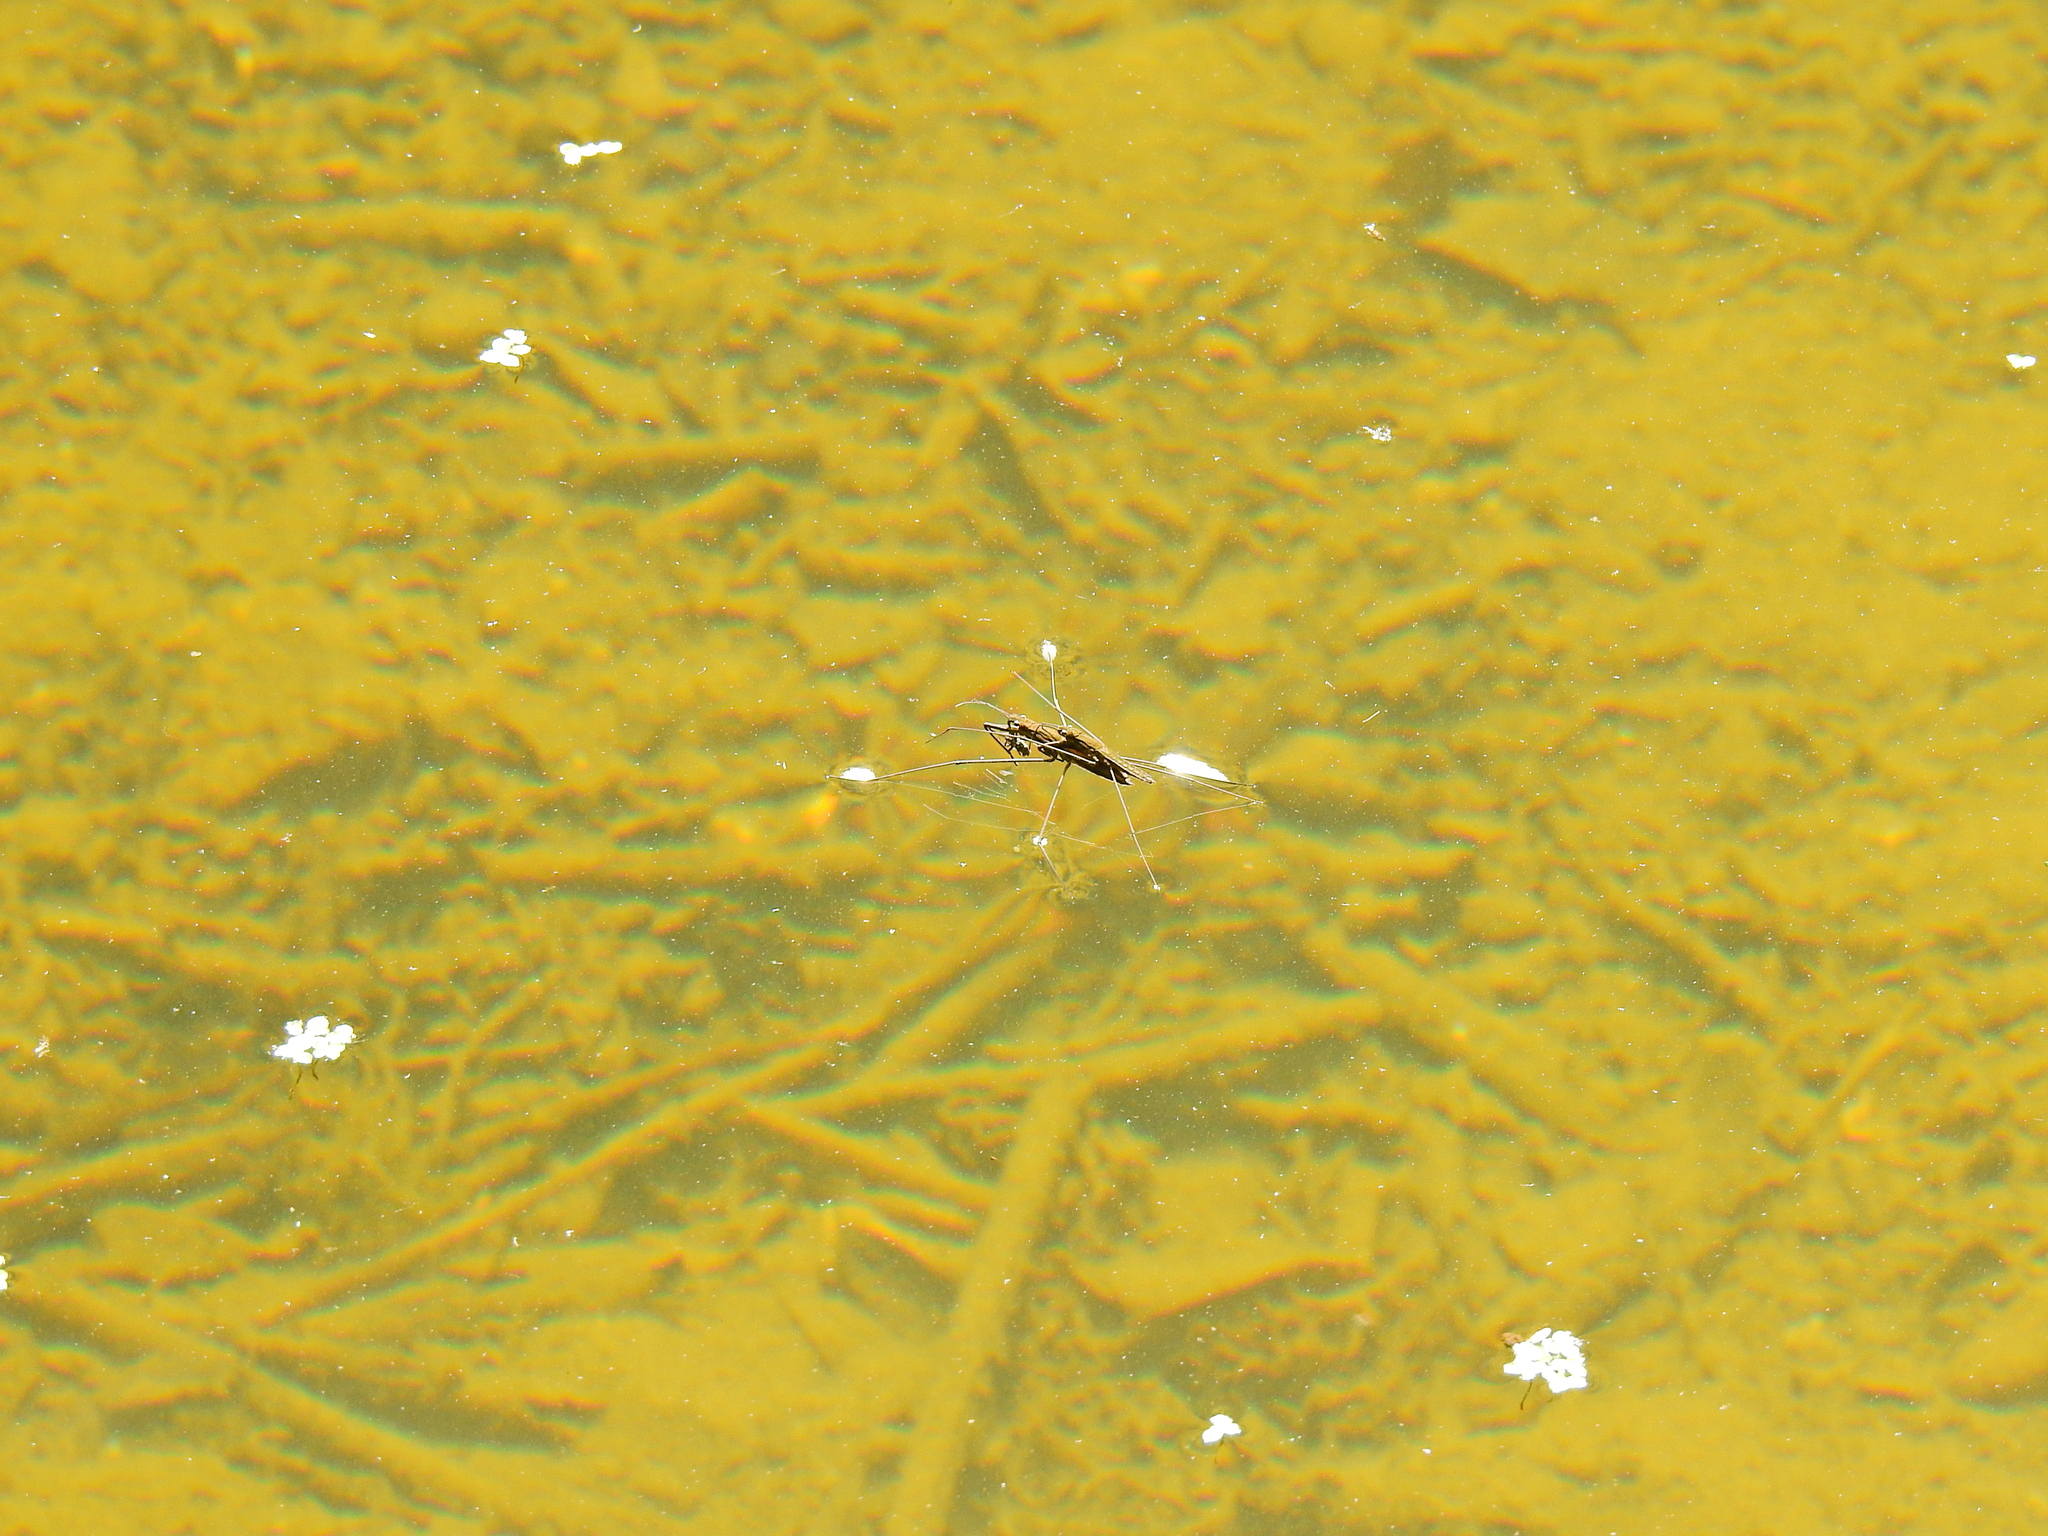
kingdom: Animalia
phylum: Arthropoda
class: Insecta
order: Hemiptera
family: Gerridae
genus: Aquarius
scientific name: Aquarius najas
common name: River skater
